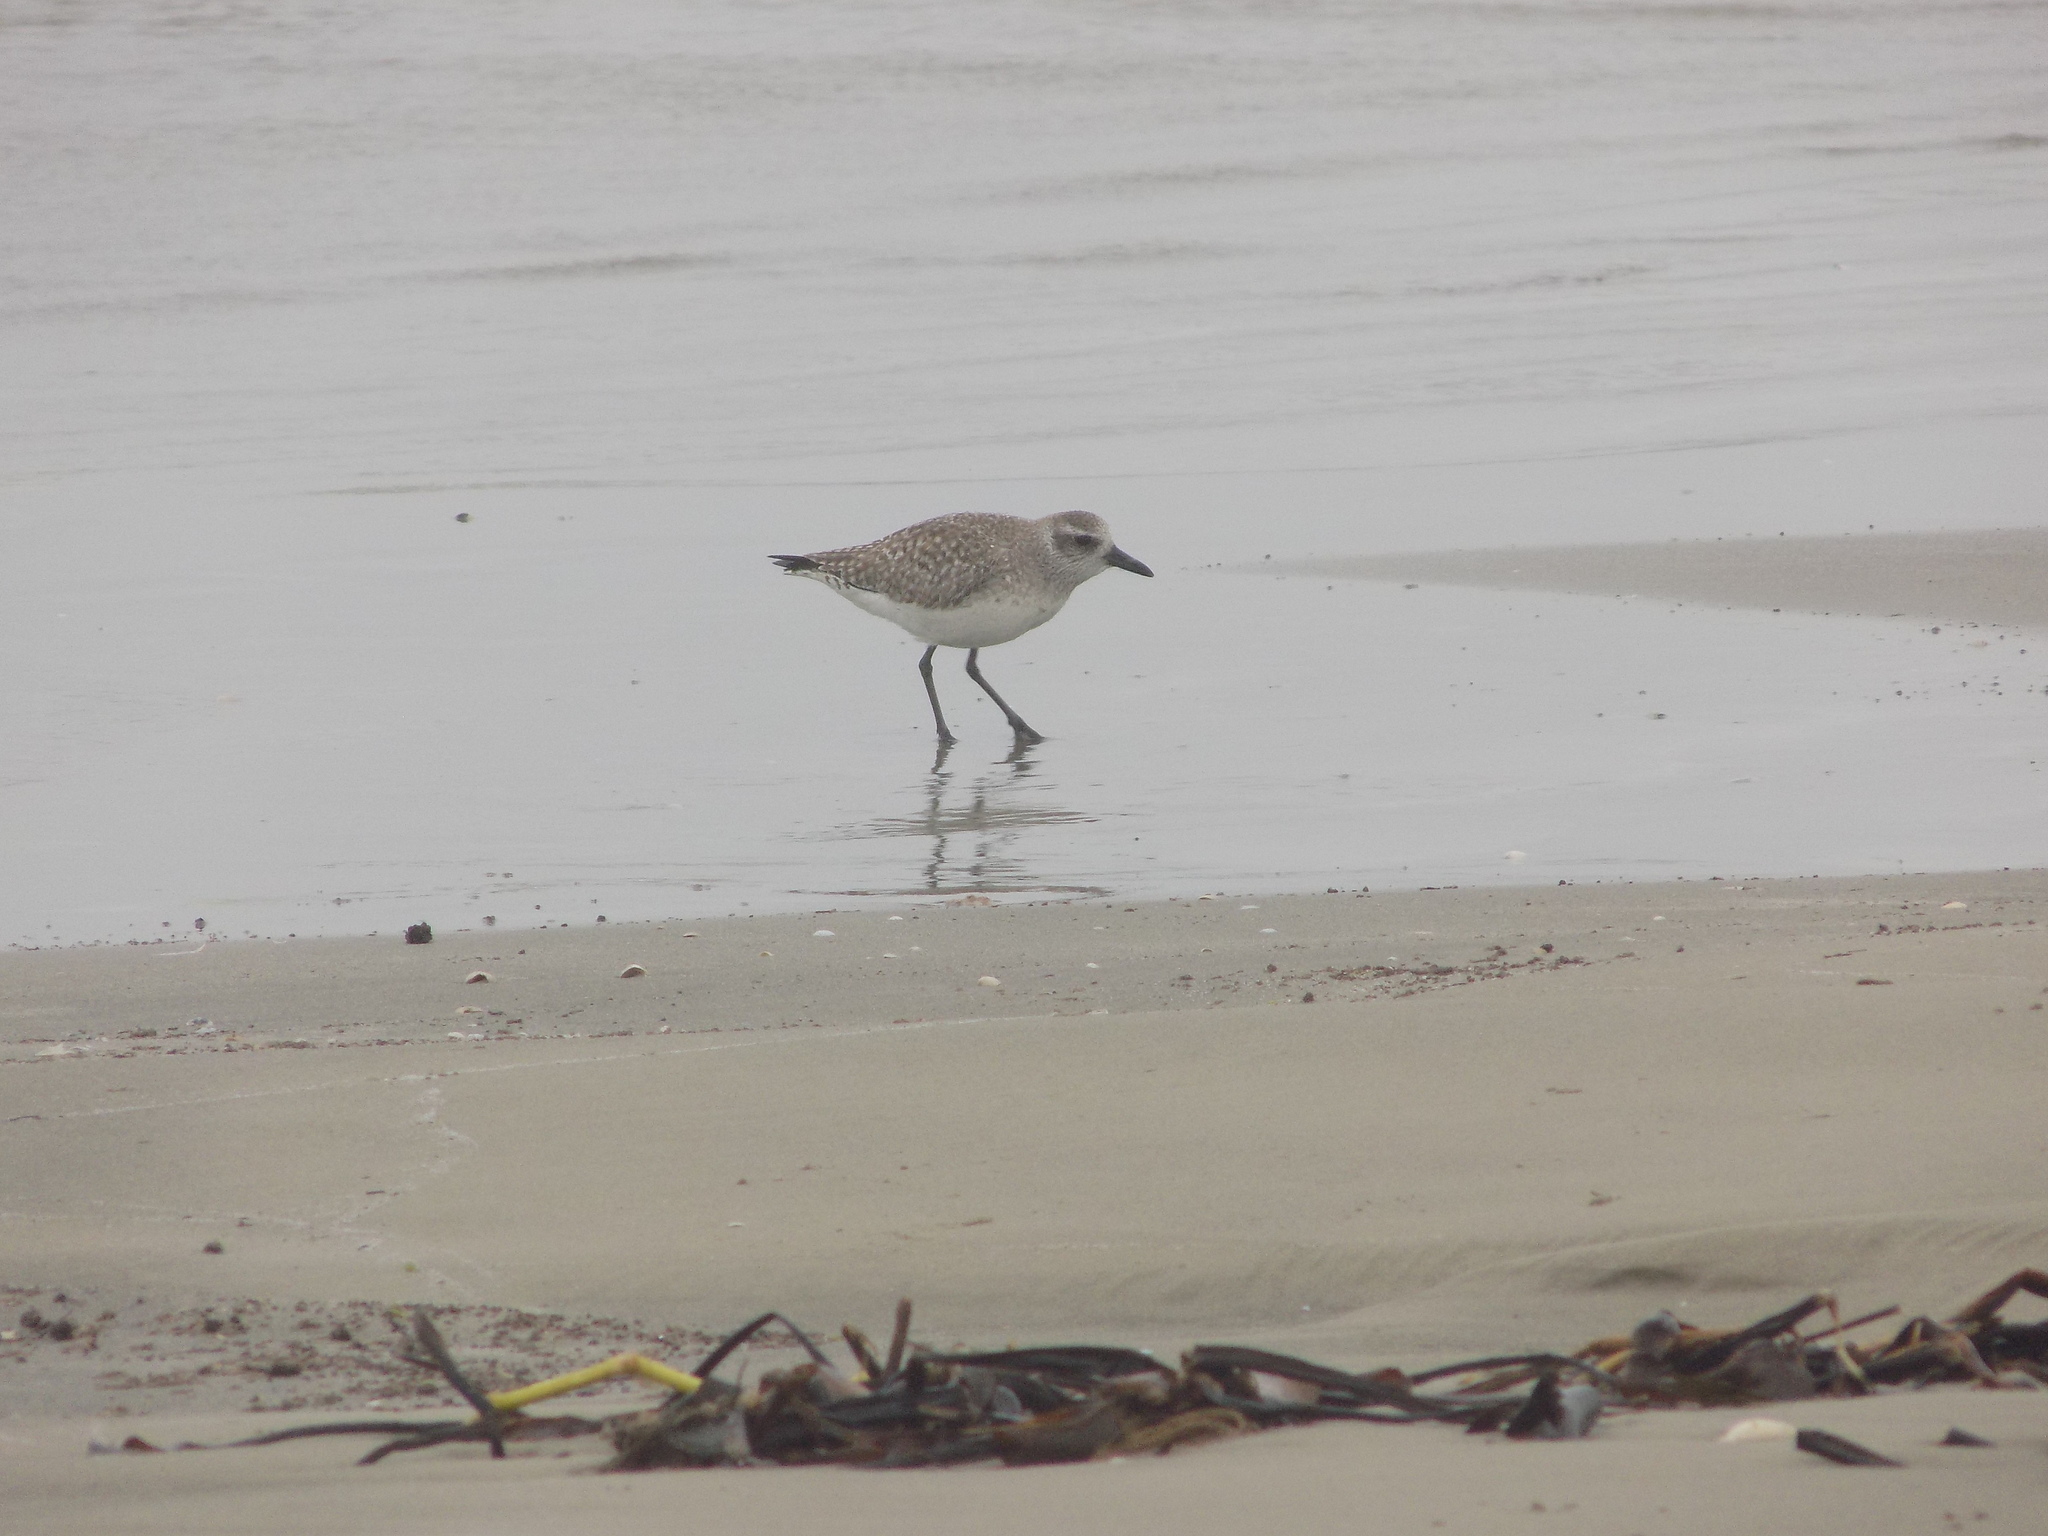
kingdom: Animalia
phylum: Chordata
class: Aves
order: Charadriiformes
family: Charadriidae
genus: Pluvialis
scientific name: Pluvialis squatarola
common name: Grey plover
